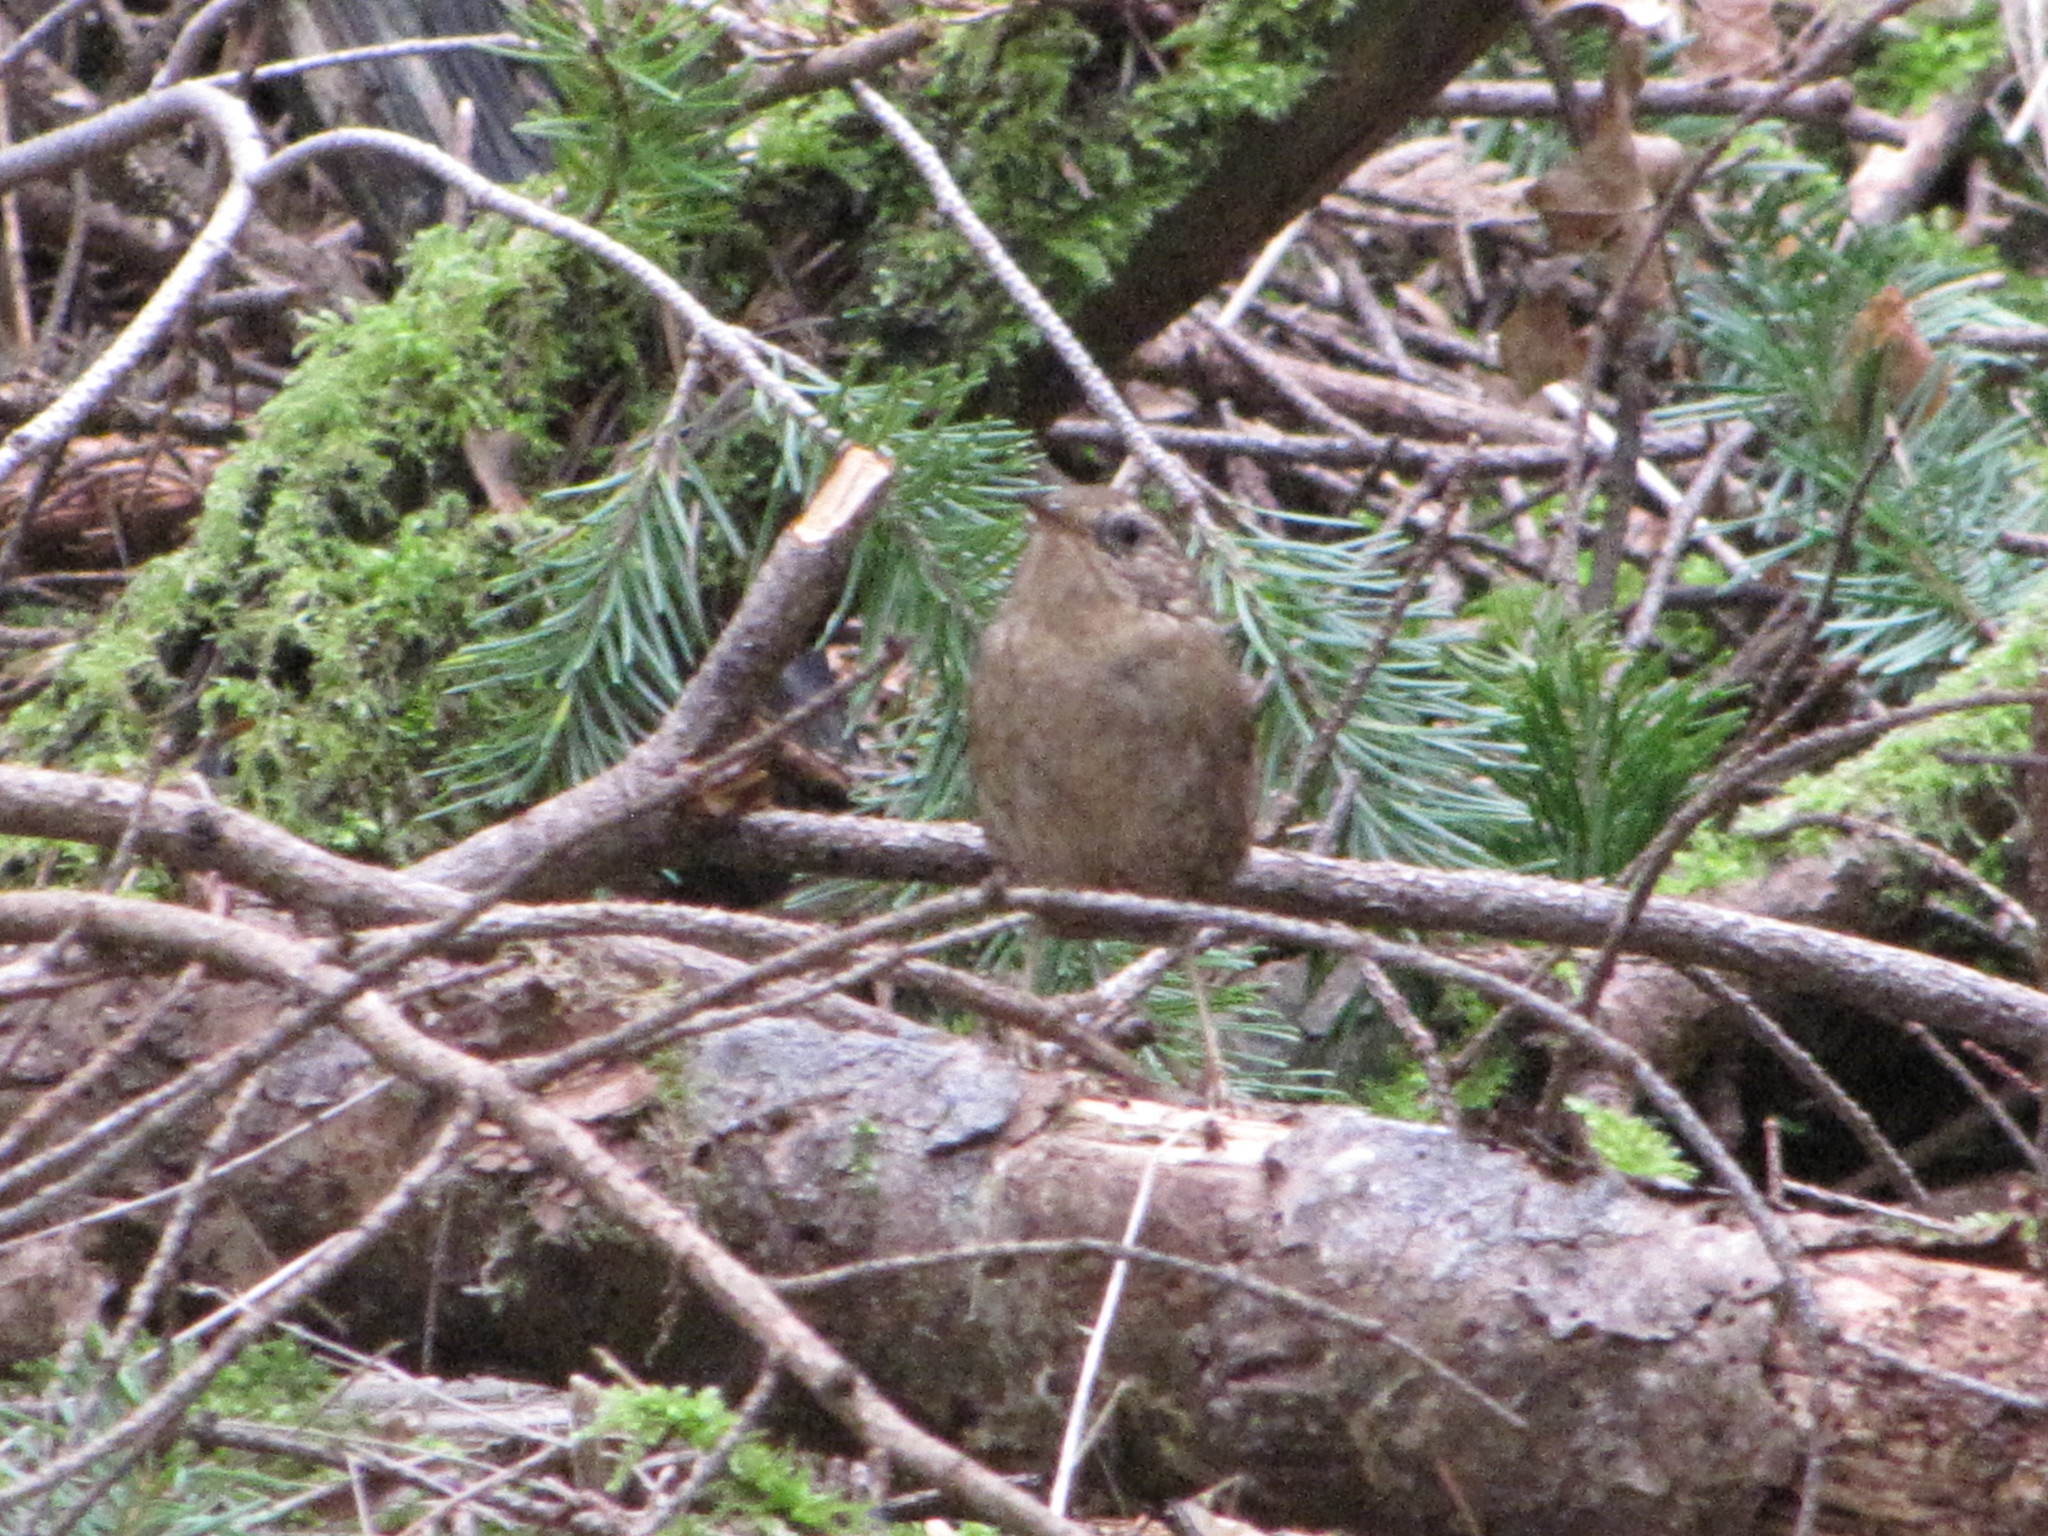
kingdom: Animalia
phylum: Chordata
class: Aves
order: Passeriformes
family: Troglodytidae
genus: Troglodytes
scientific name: Troglodytes pacificus
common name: Pacific wren
